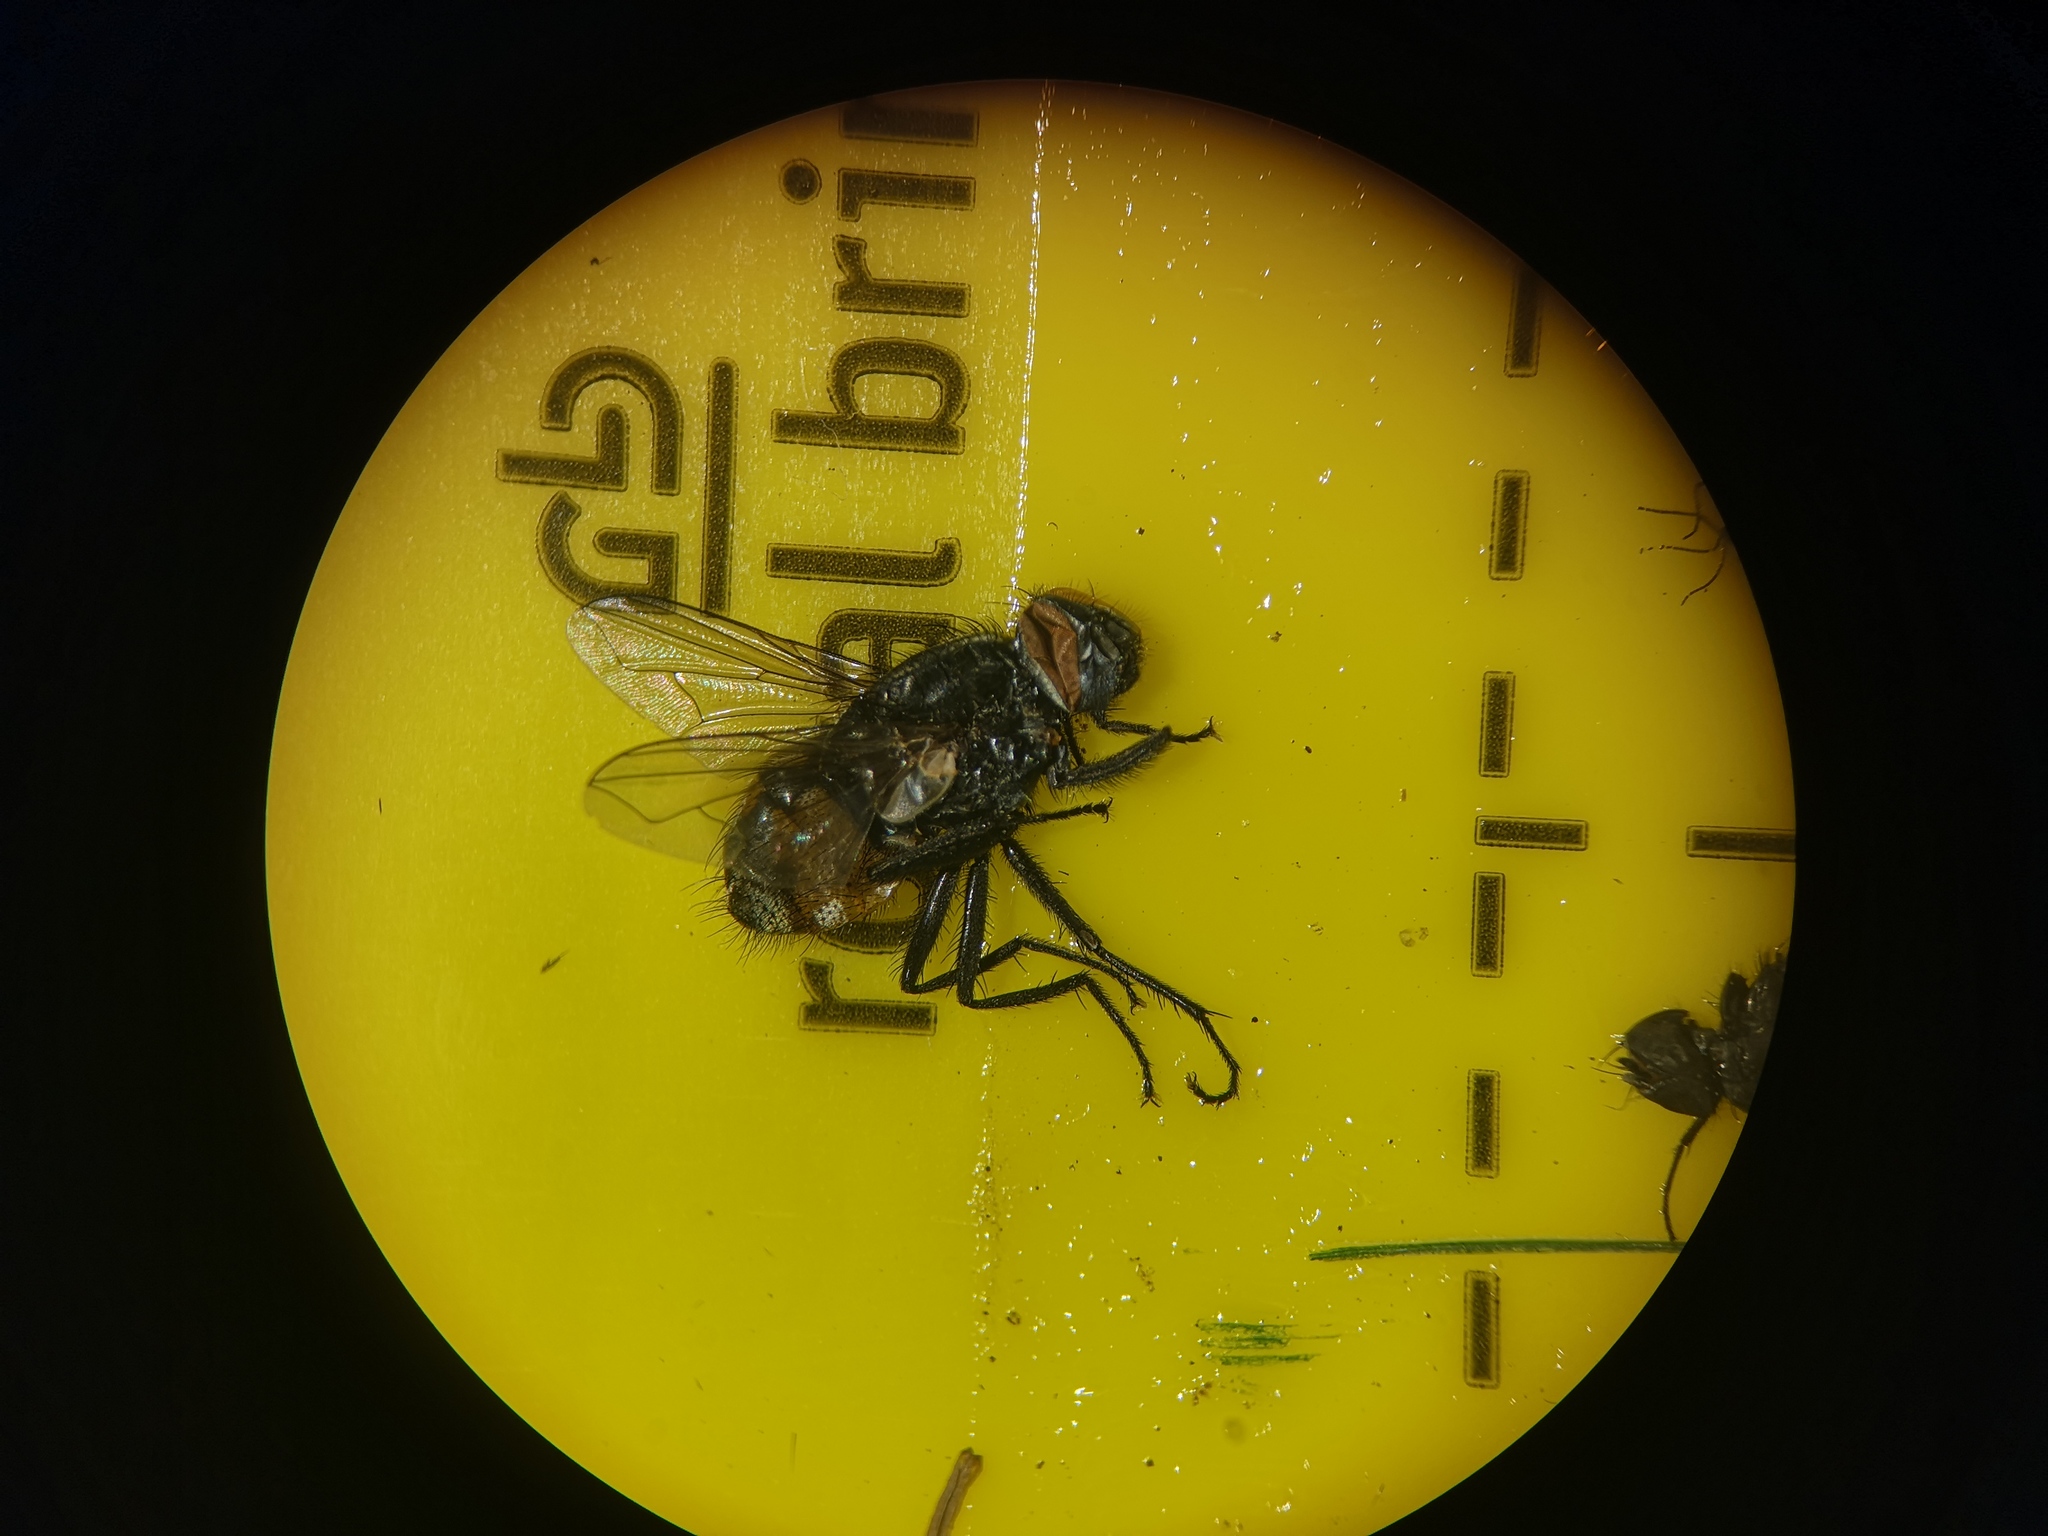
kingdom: Animalia
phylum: Arthropoda
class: Insecta
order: Diptera
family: Muscidae
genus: Musca
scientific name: Musca autumnalis
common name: Face fly
